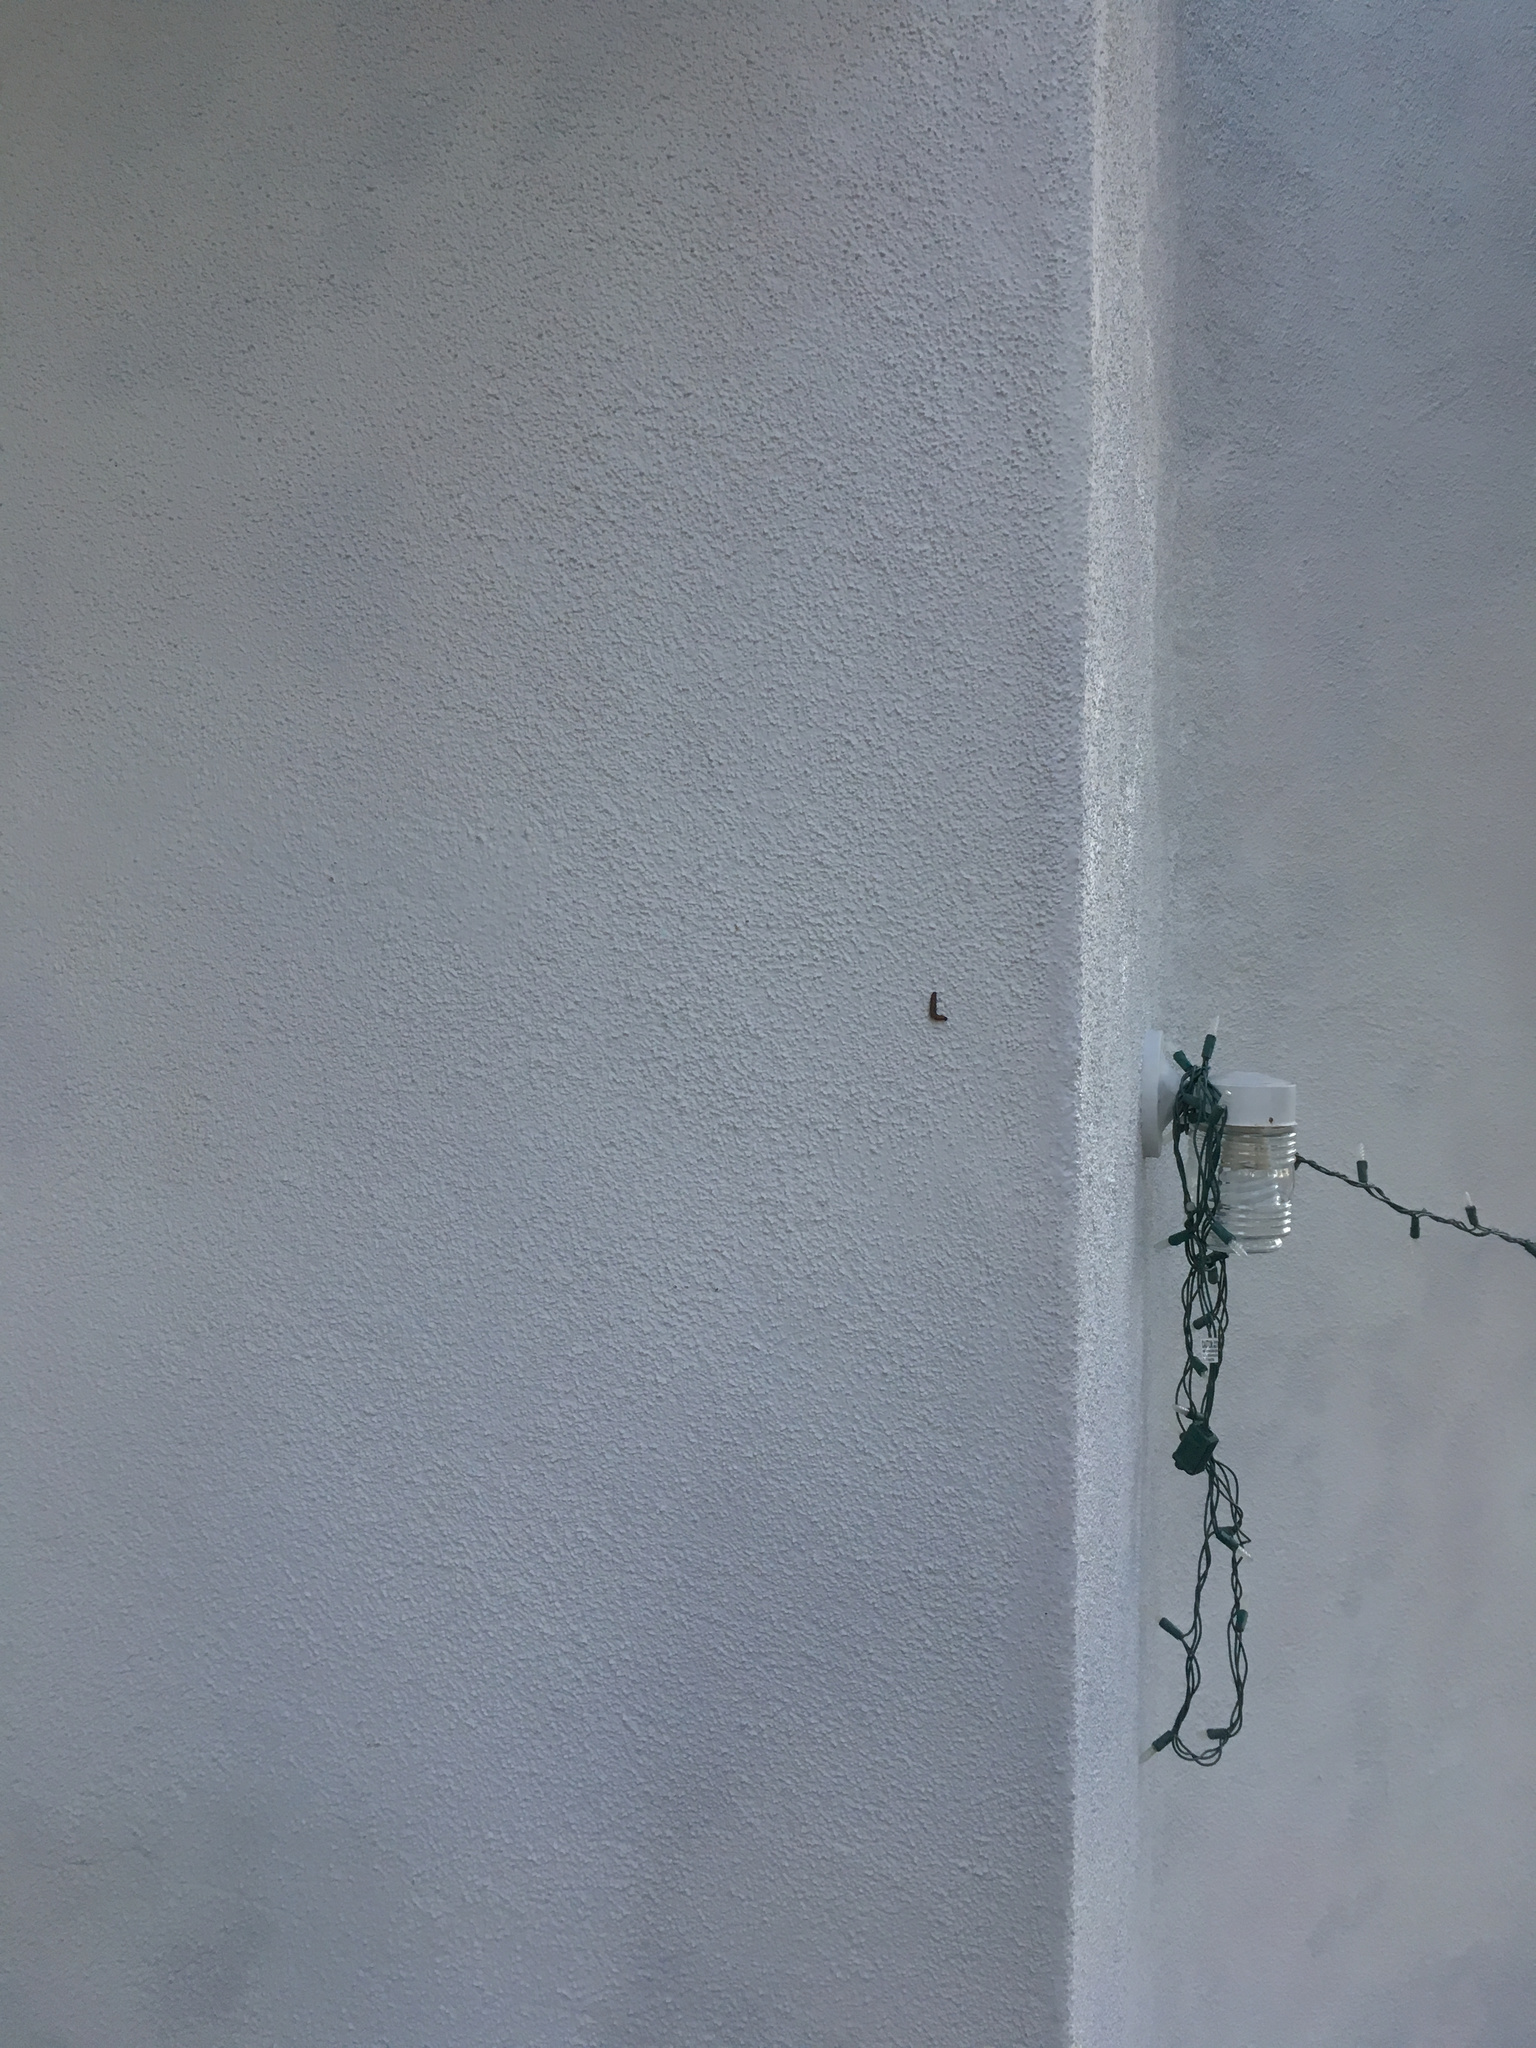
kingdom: Animalia
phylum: Arthropoda
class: Insecta
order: Lepidoptera
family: Crambidae
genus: Uresiphita
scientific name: Uresiphita reversalis
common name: Genista broom moth
